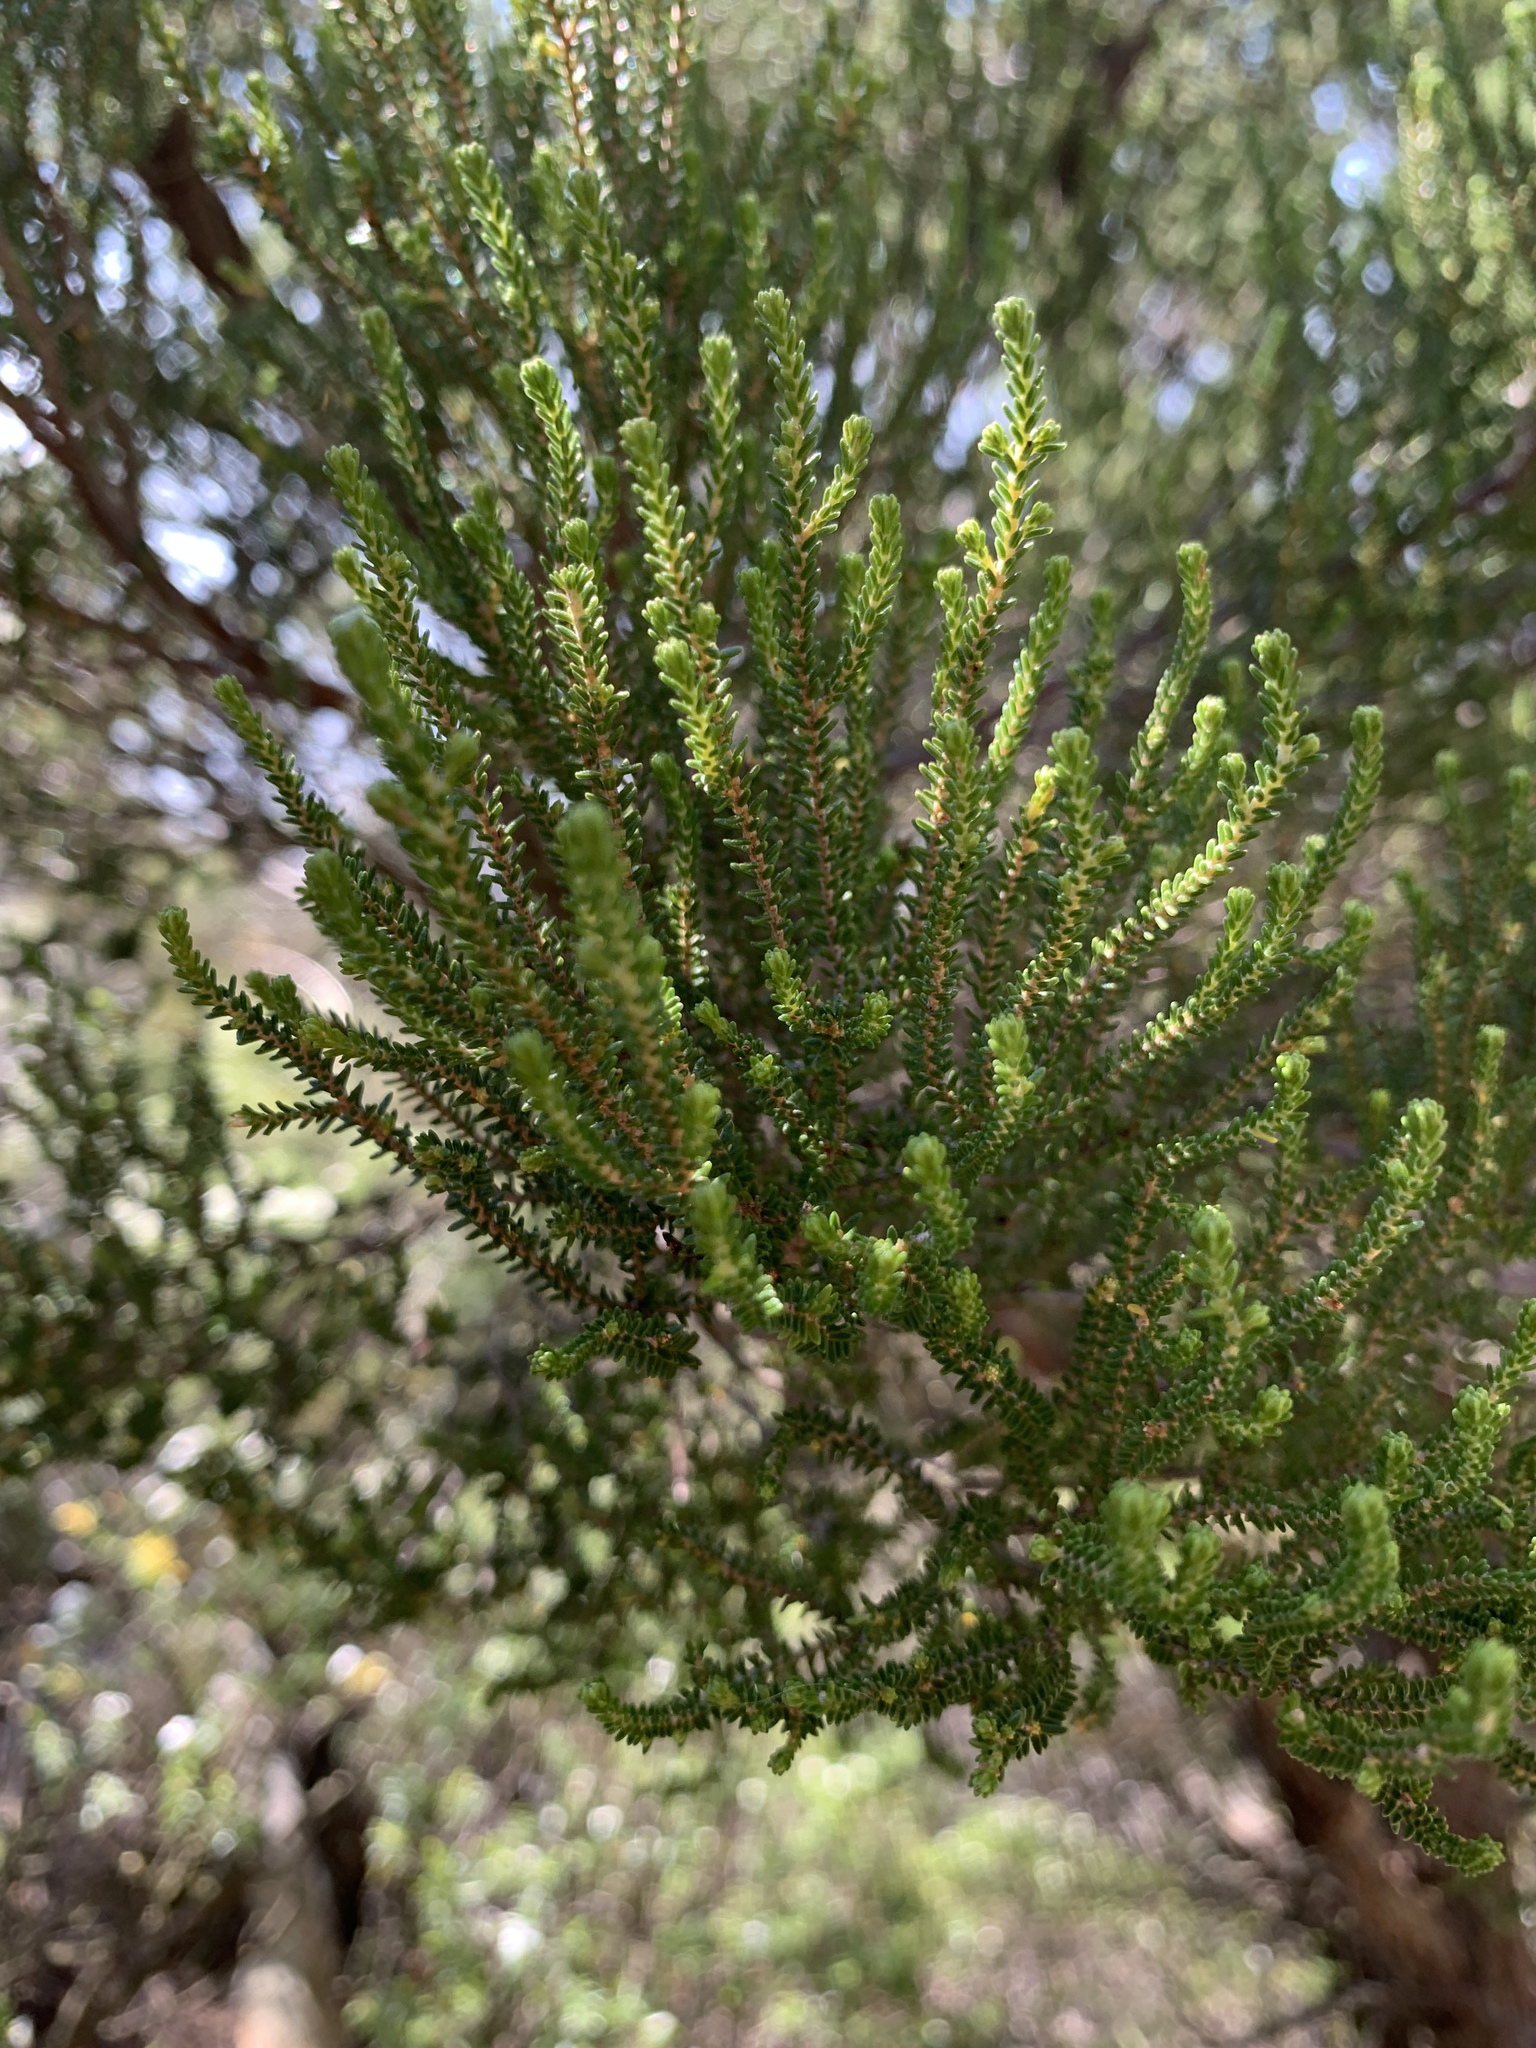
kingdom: Plantae
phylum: Tracheophyta
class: Magnoliopsida
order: Ericales
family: Ericaceae
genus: Erica
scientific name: Erica tristis
